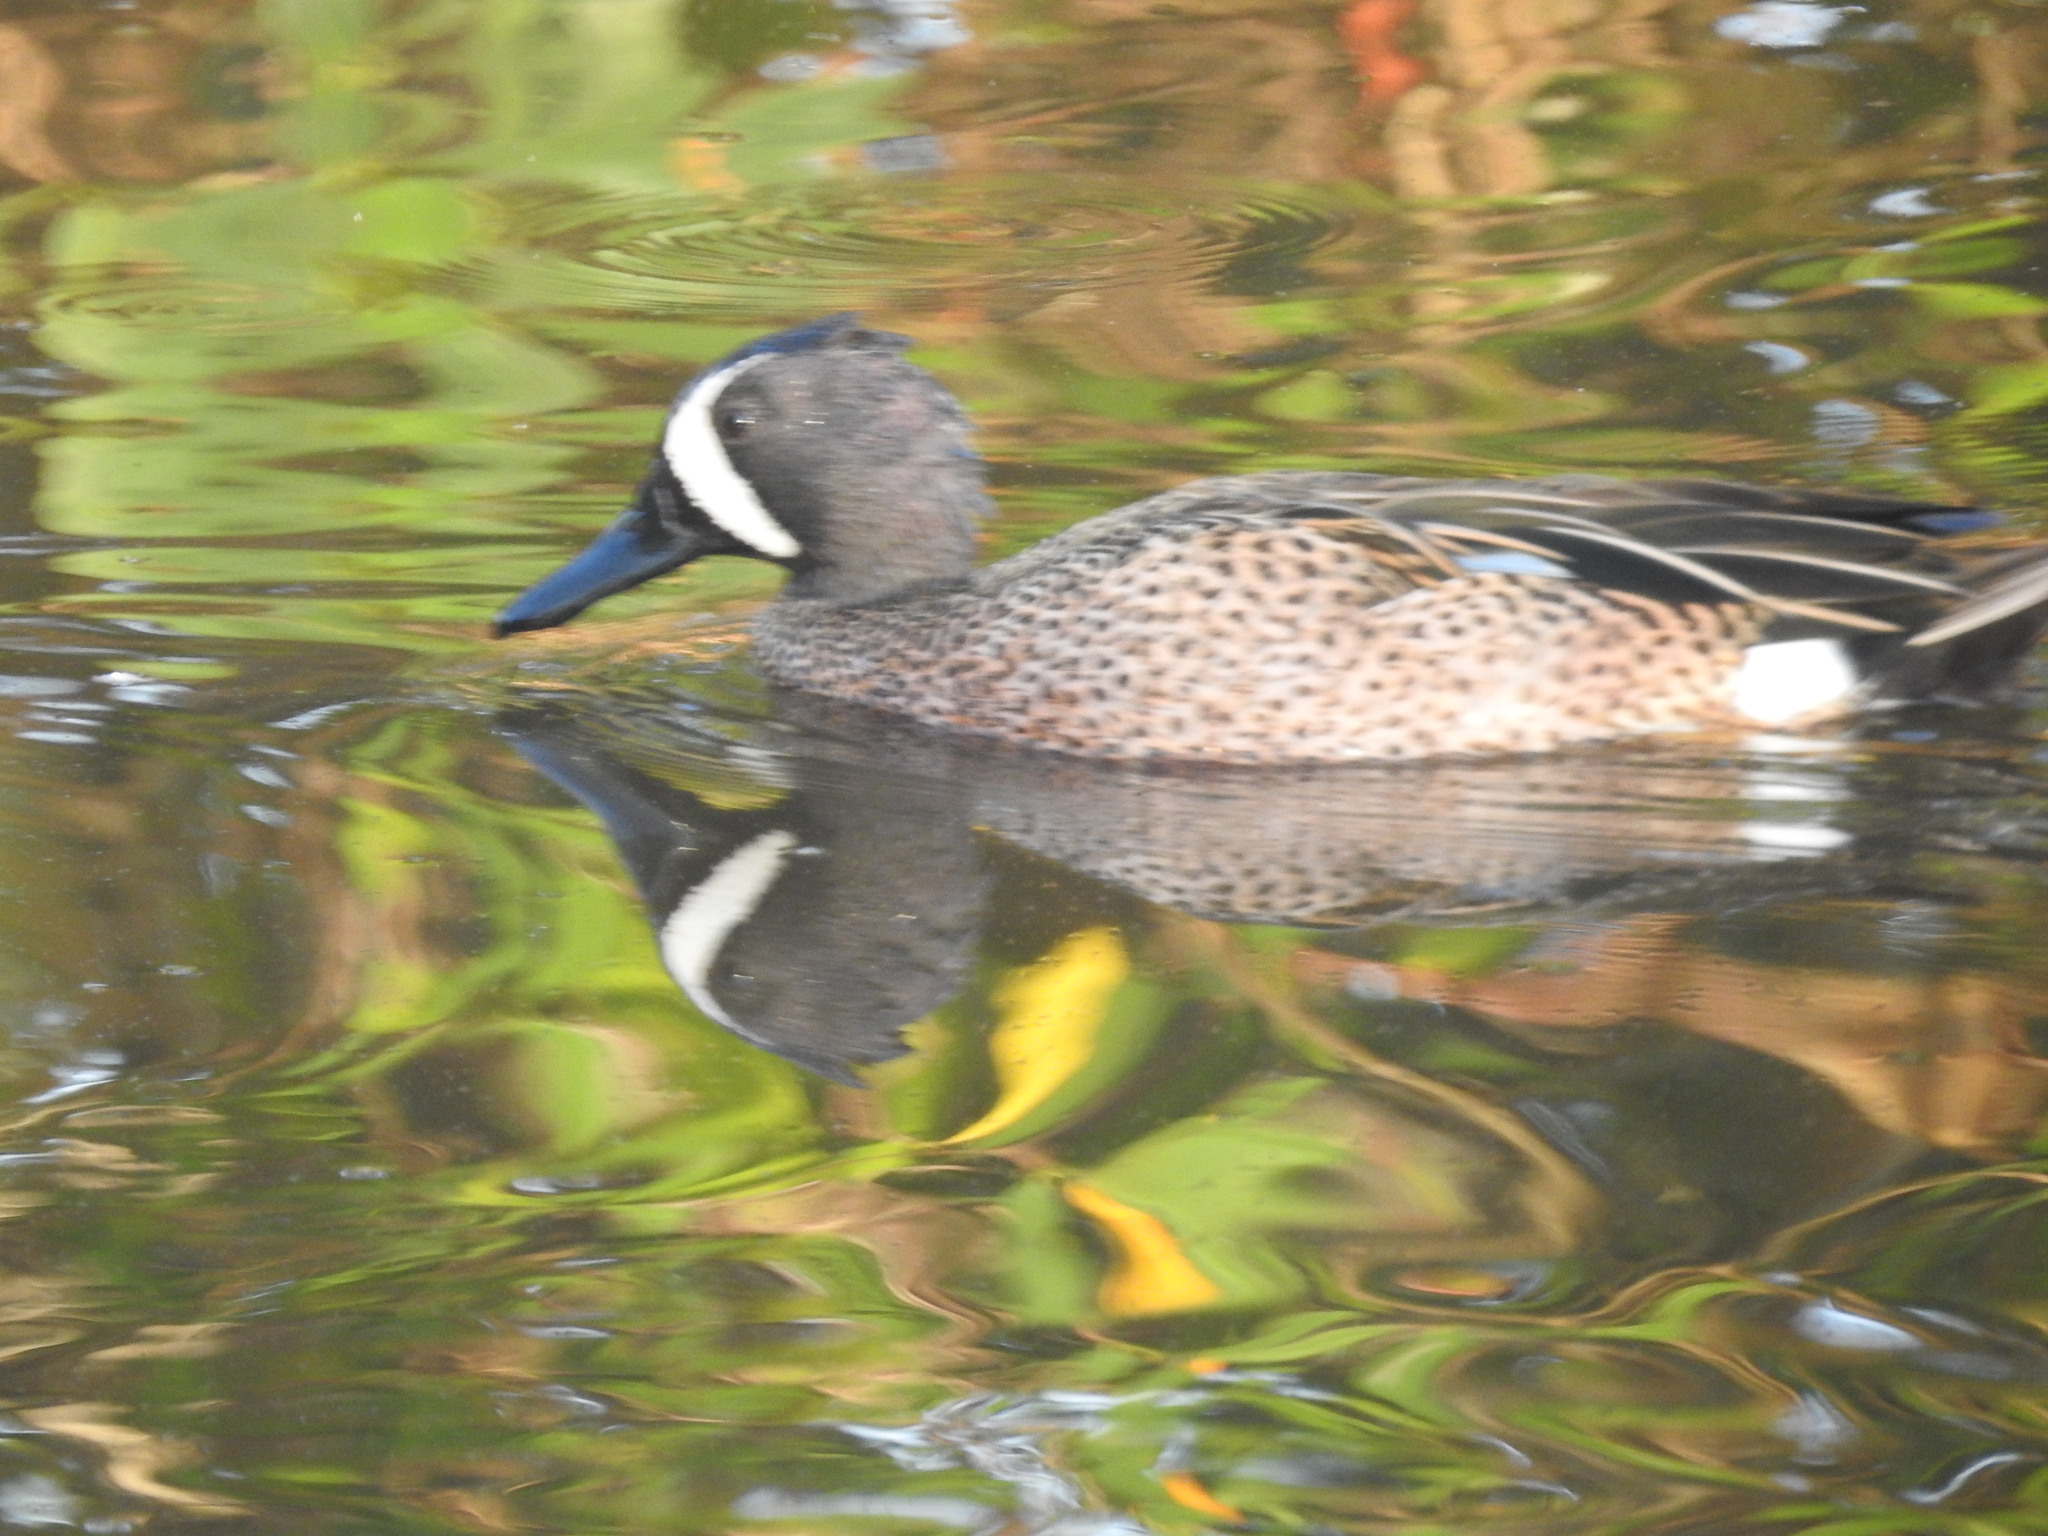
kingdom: Animalia
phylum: Chordata
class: Aves
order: Anseriformes
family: Anatidae
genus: Spatula
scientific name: Spatula discors
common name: Blue-winged teal
